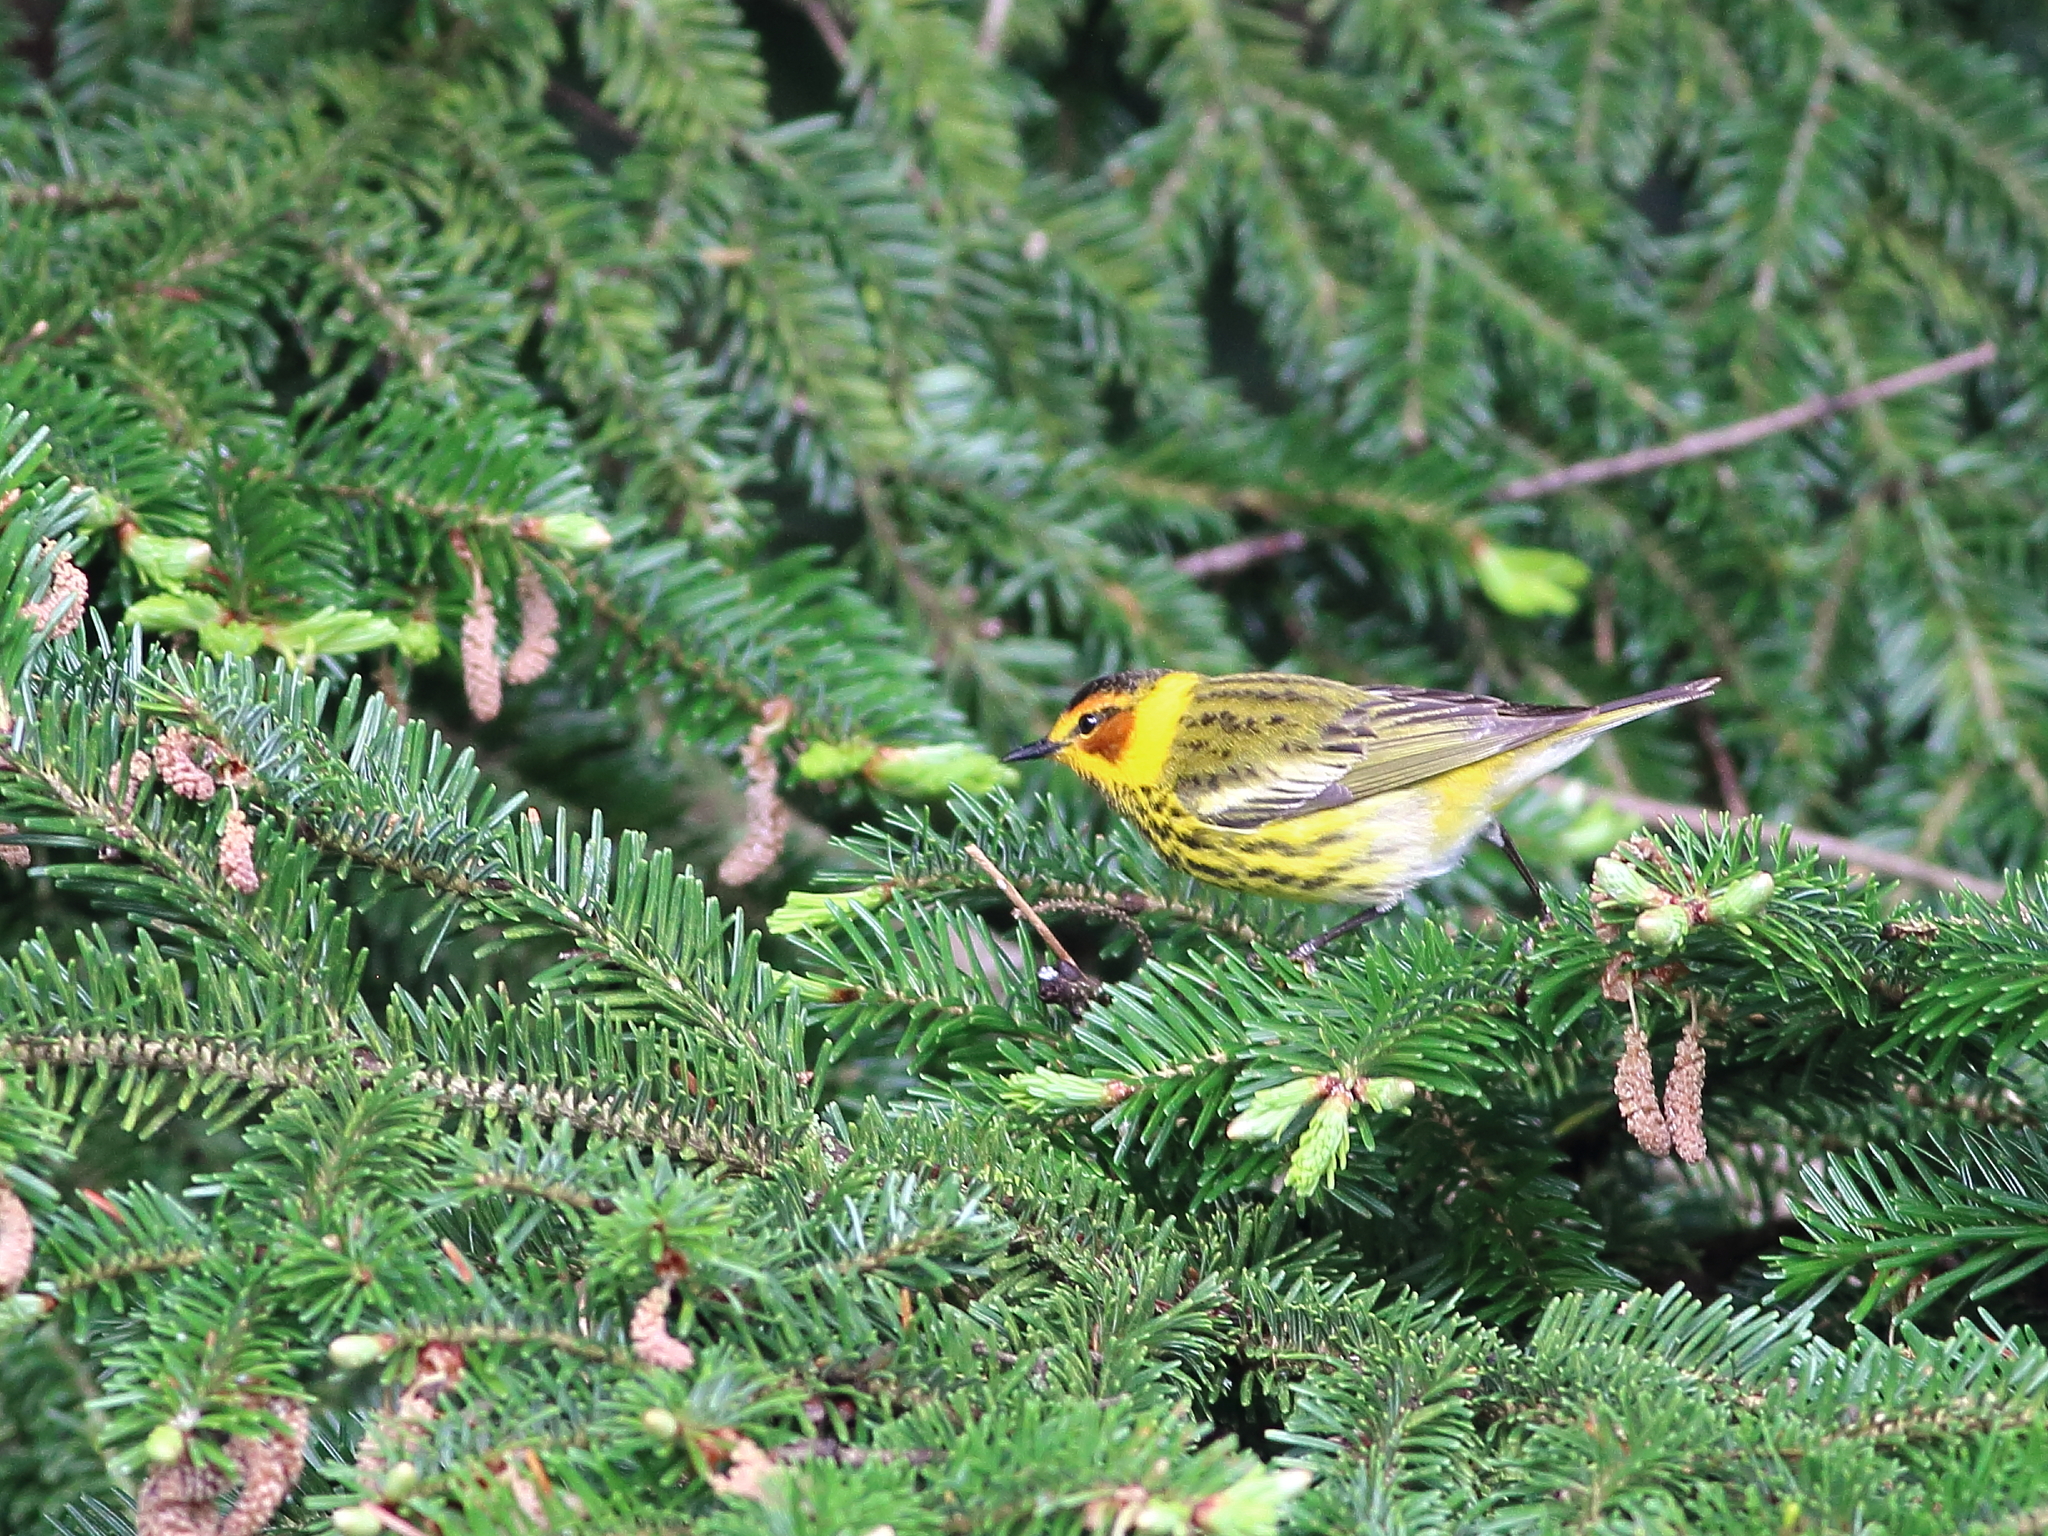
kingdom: Animalia
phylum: Chordata
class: Aves
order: Passeriformes
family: Parulidae
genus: Setophaga
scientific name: Setophaga tigrina
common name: Cape may warbler
